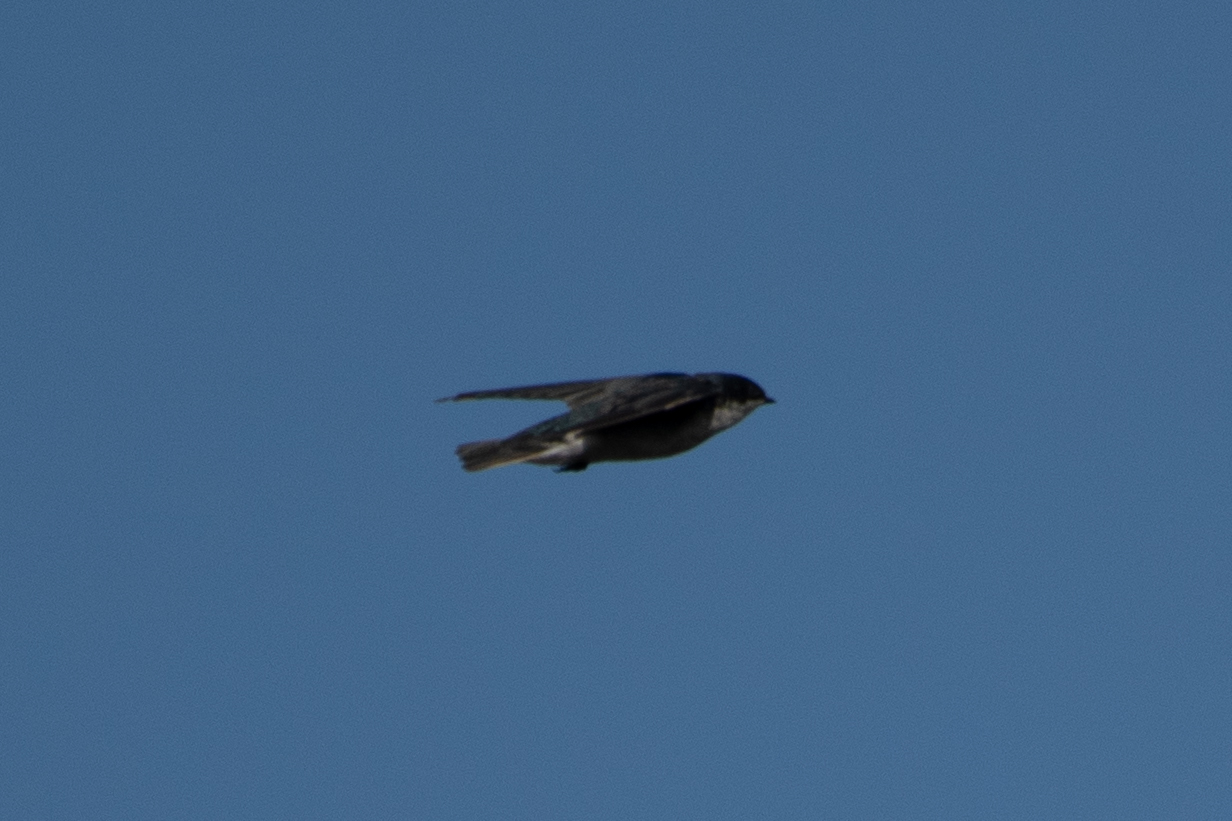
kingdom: Animalia
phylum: Chordata
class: Aves
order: Passeriformes
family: Hirundinidae
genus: Tachycineta
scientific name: Tachycineta bicolor
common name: Tree swallow
